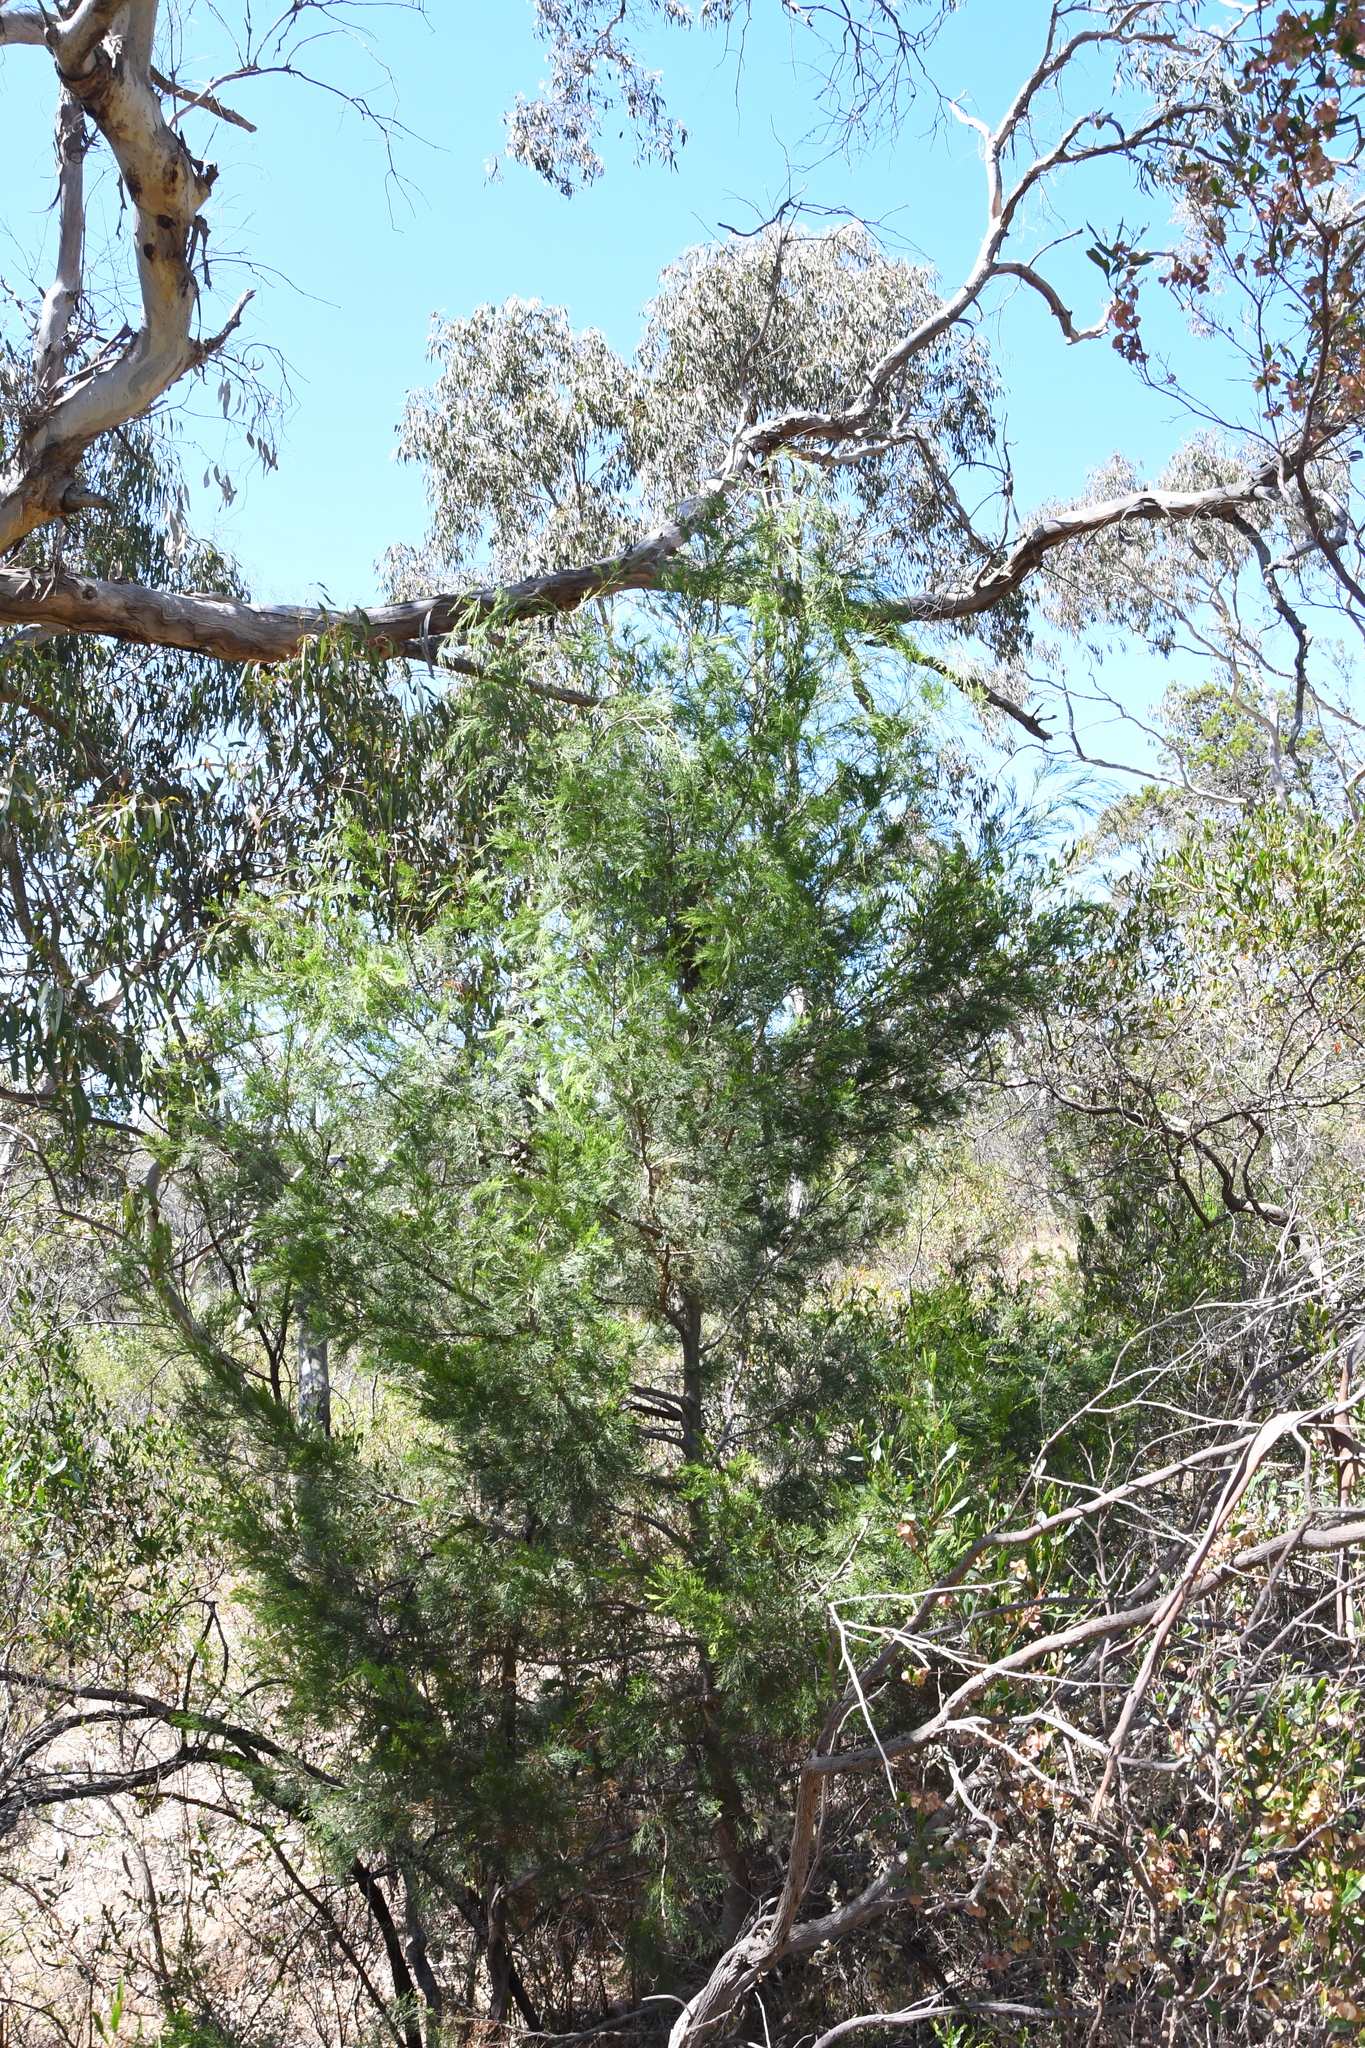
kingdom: Plantae
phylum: Tracheophyta
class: Pinopsida
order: Pinales
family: Cupressaceae
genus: Callitris
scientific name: Callitris preissii
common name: Mallee pine
